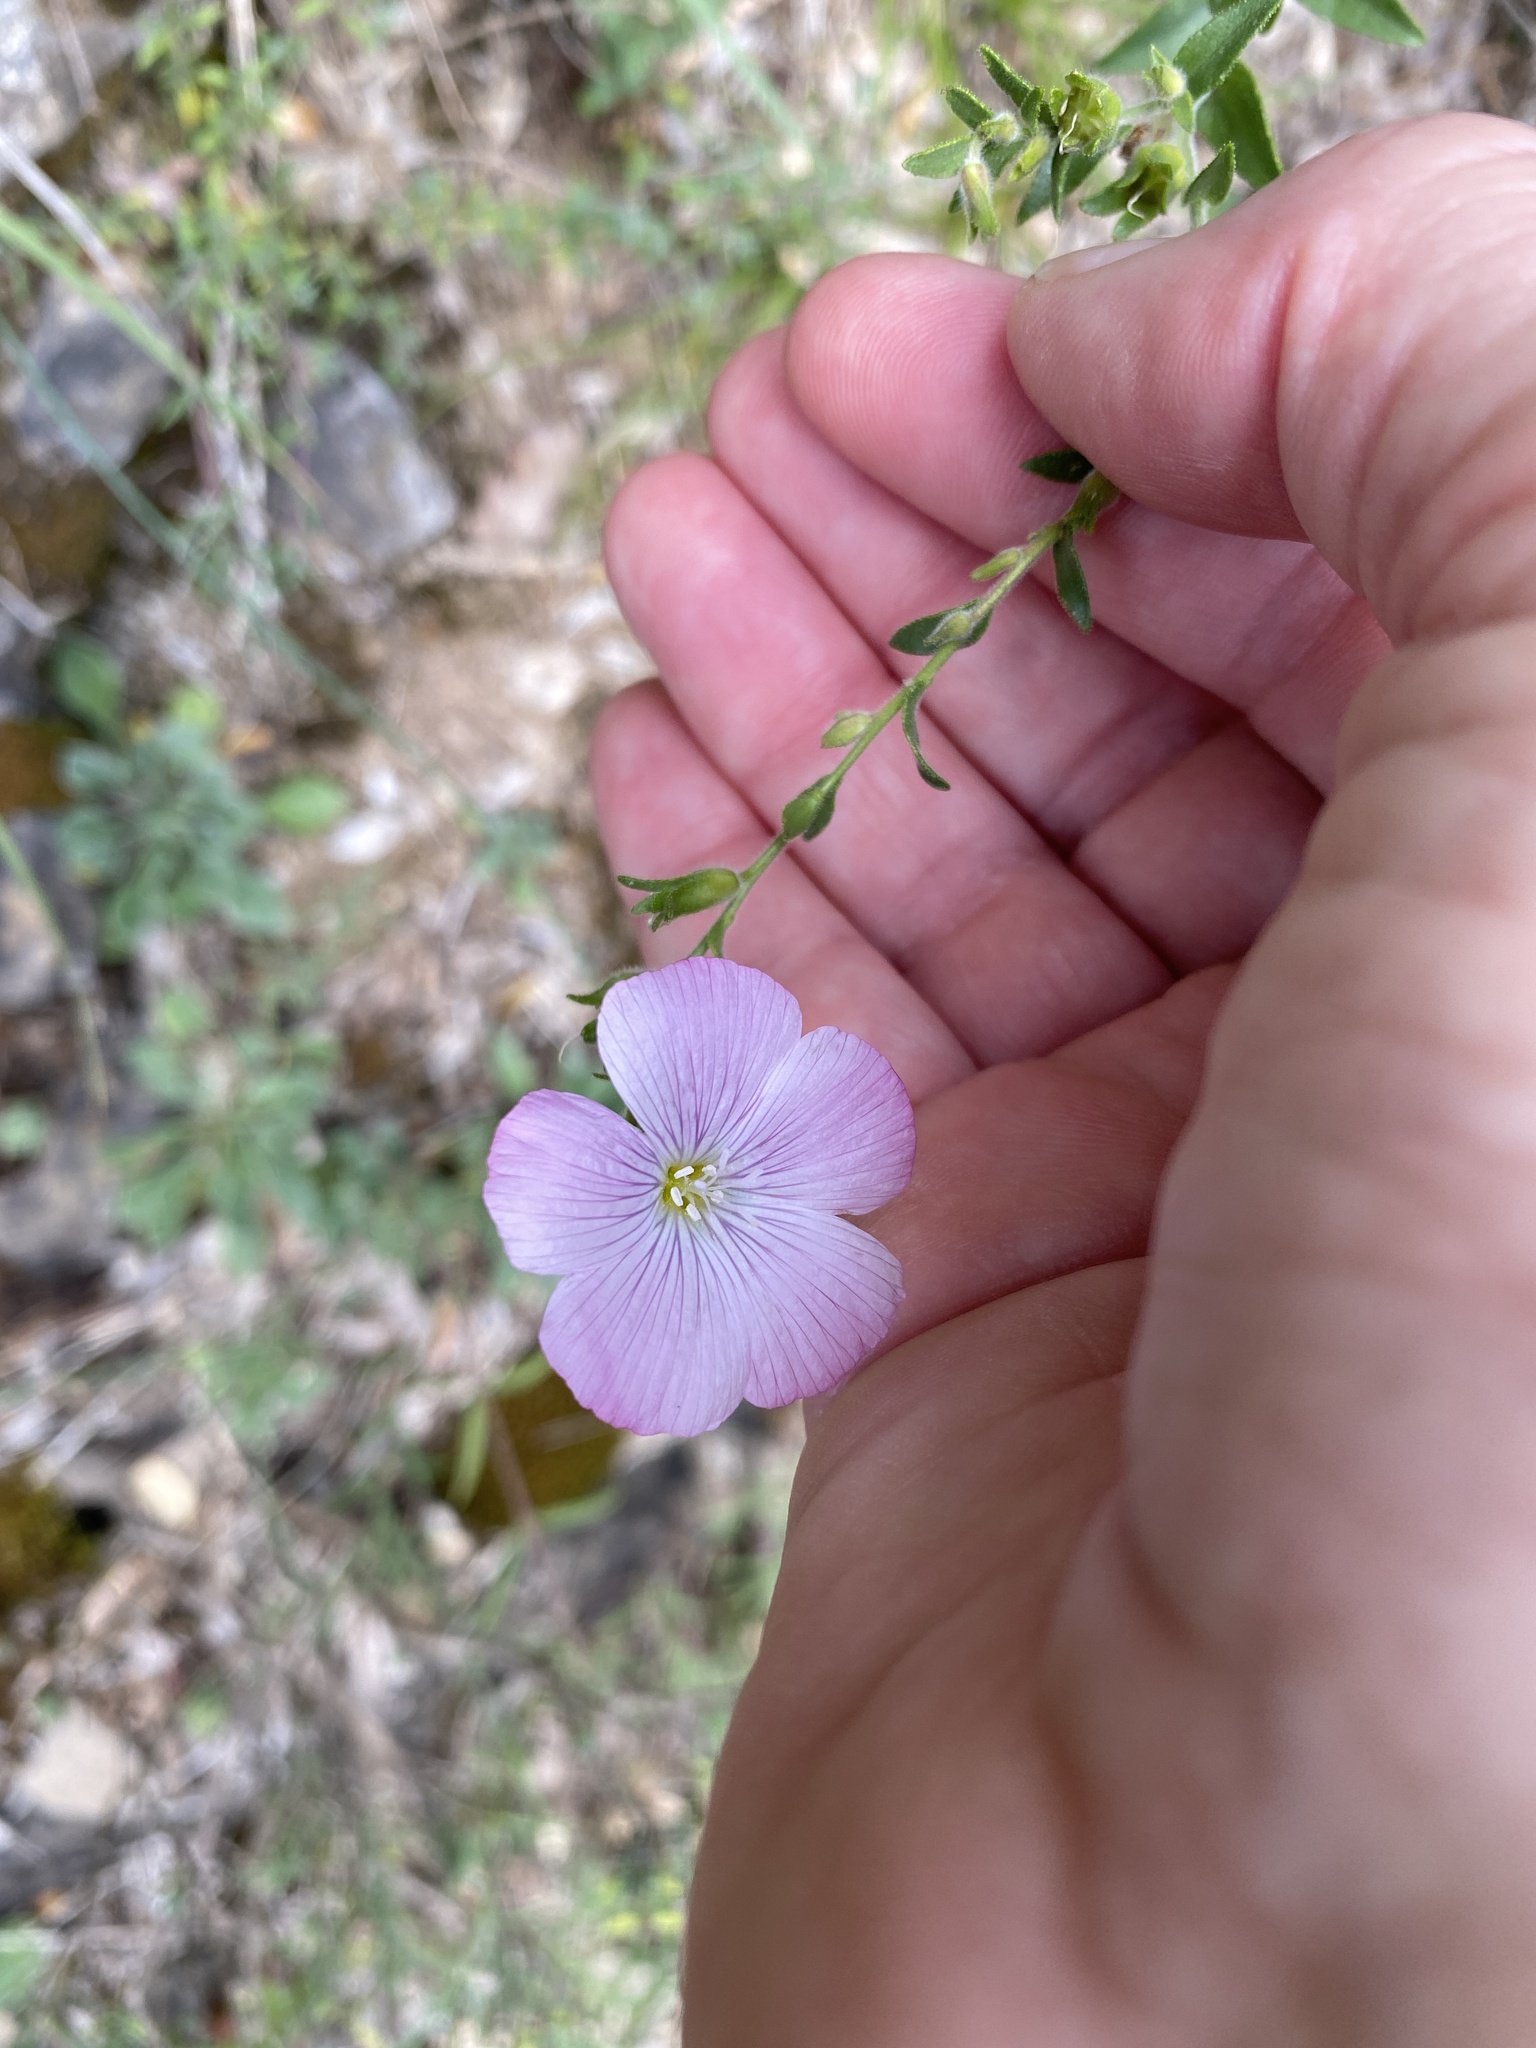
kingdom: Plantae
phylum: Tracheophyta
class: Magnoliopsida
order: Malpighiales
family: Linaceae
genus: Linum
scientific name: Linum viscosum
